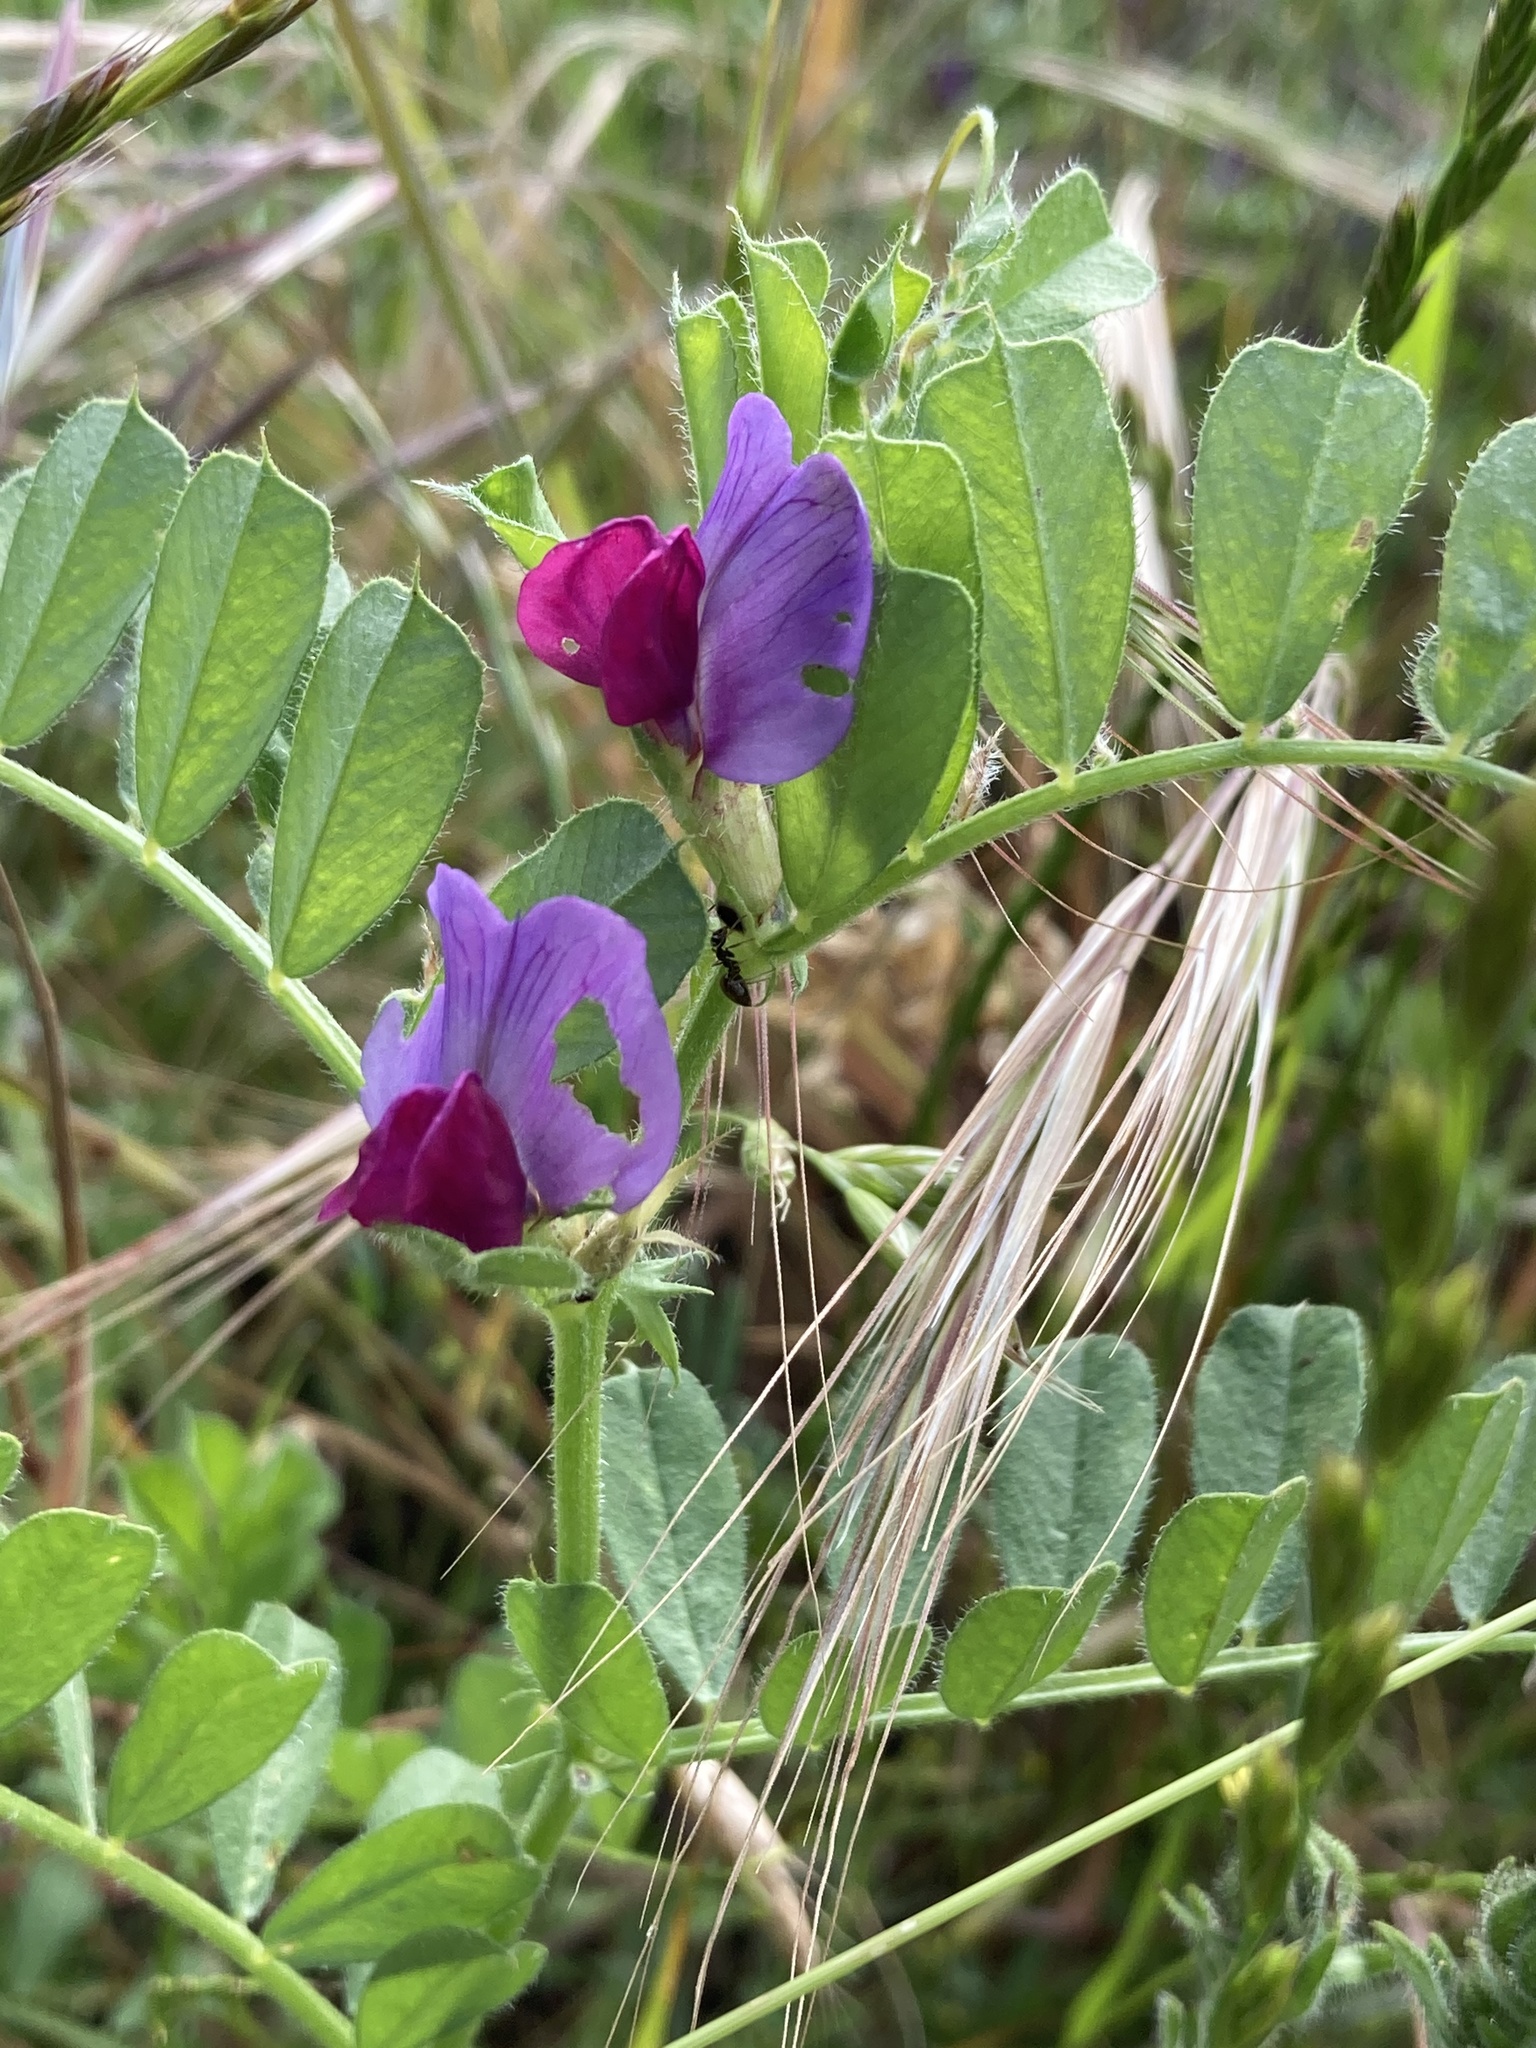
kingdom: Plantae
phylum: Tracheophyta
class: Magnoliopsida
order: Fabales
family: Fabaceae
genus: Vicia
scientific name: Vicia sativa
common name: Garden vetch
